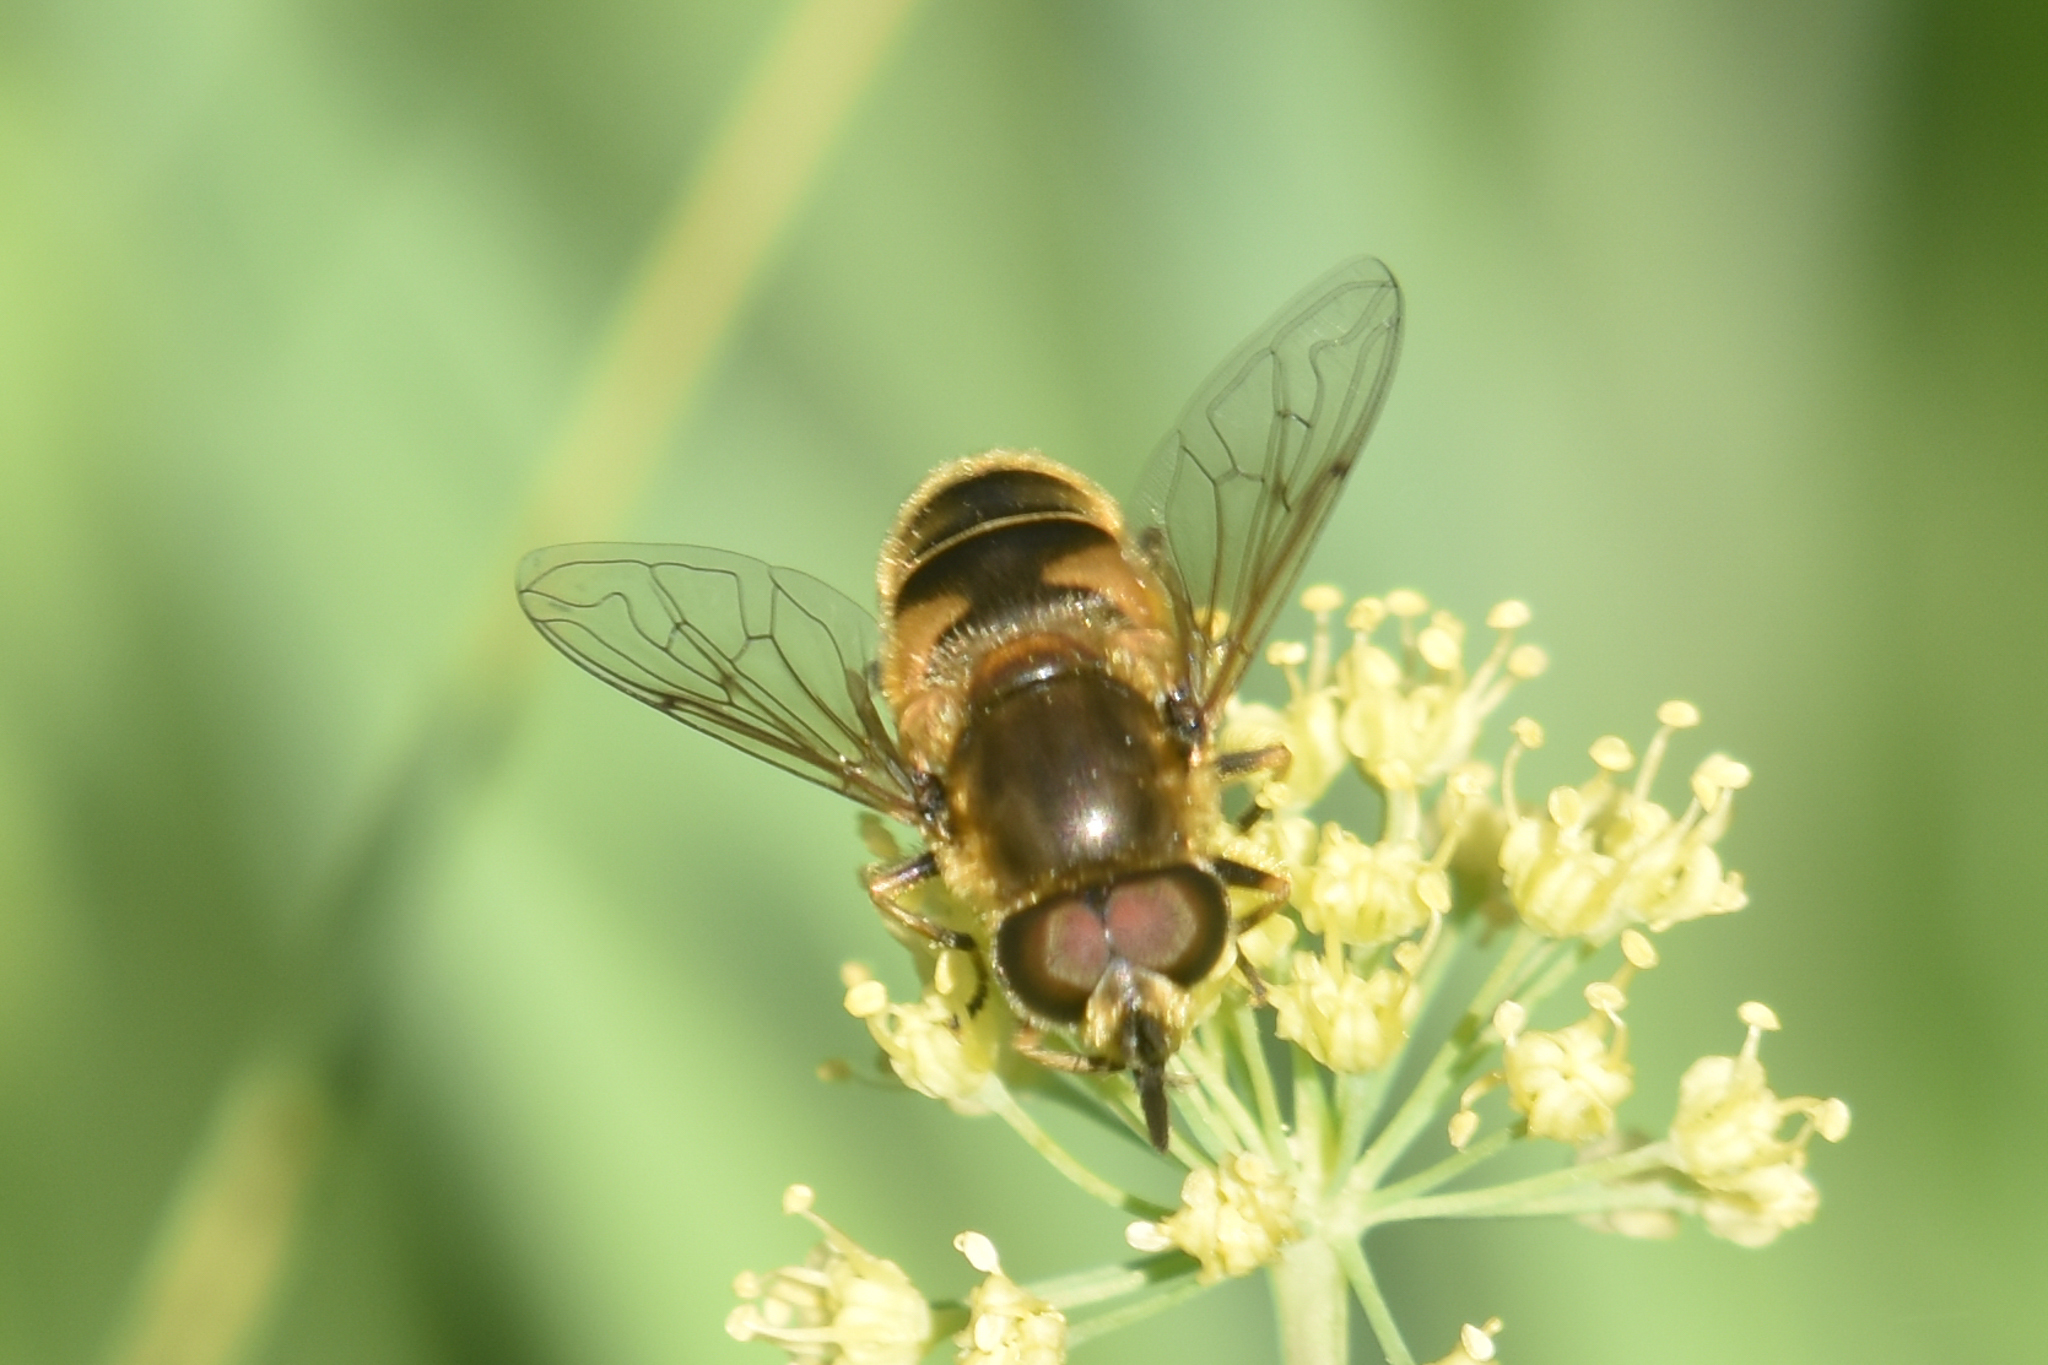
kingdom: Animalia
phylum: Arthropoda
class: Insecta
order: Diptera
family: Syrphidae
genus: Eristalis
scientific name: Eristalis nemorum
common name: Orange-spined drone fly
